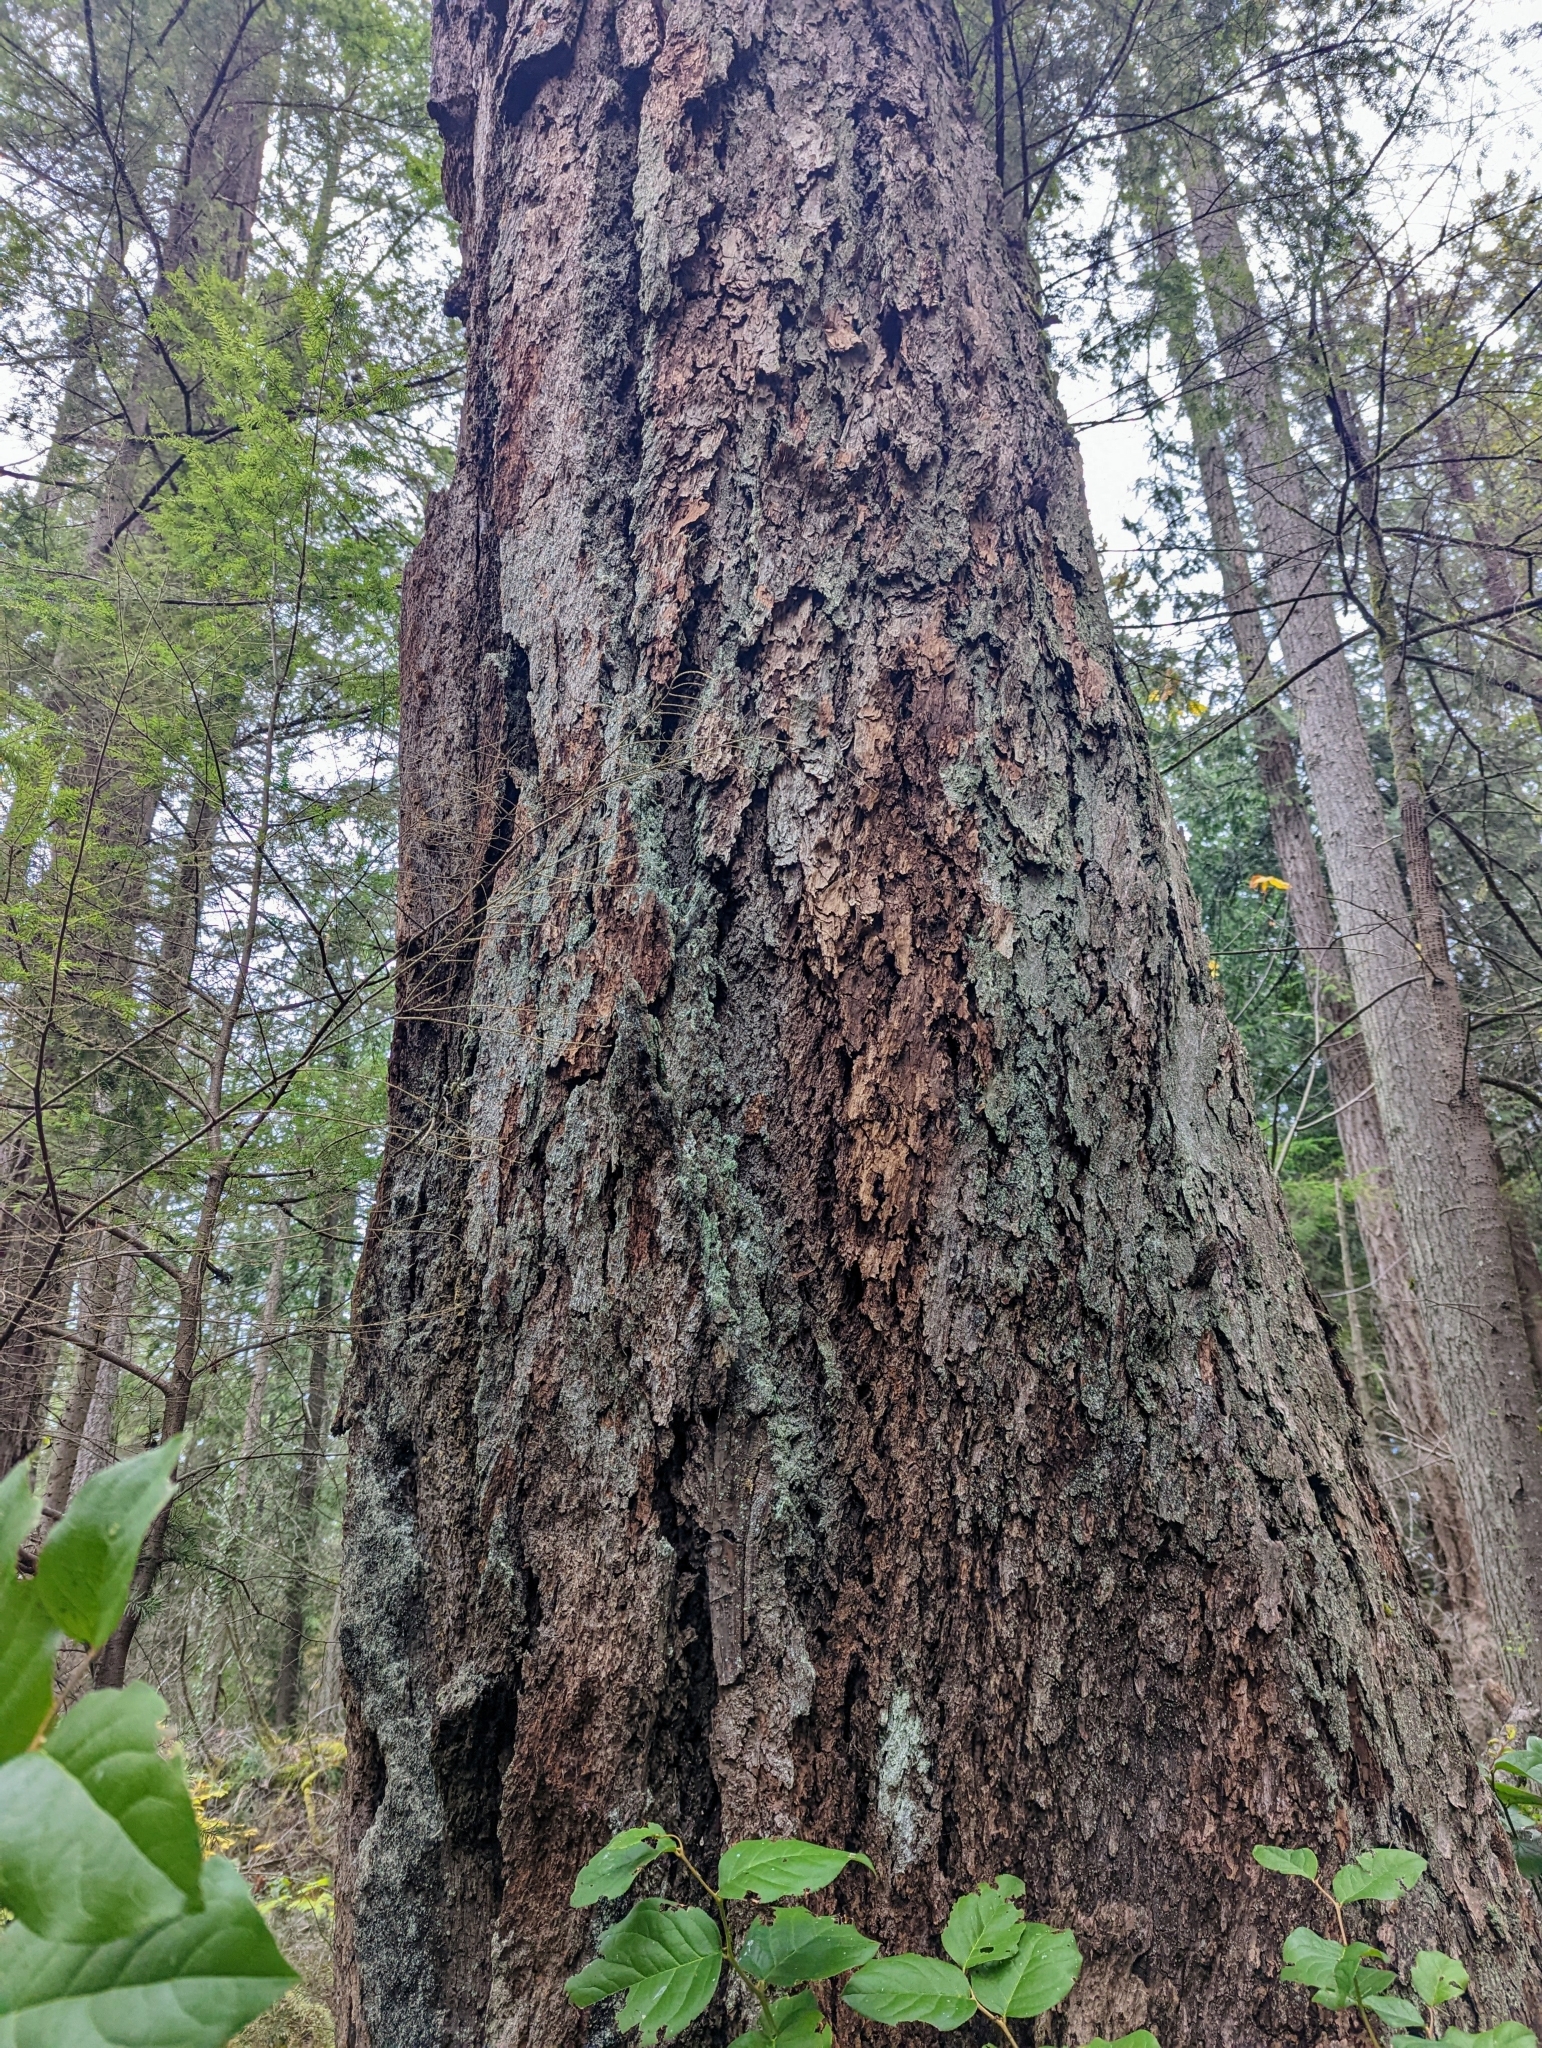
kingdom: Plantae
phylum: Tracheophyta
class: Pinopsida
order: Pinales
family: Pinaceae
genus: Pseudotsuga
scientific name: Pseudotsuga menziesii
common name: Douglas fir
